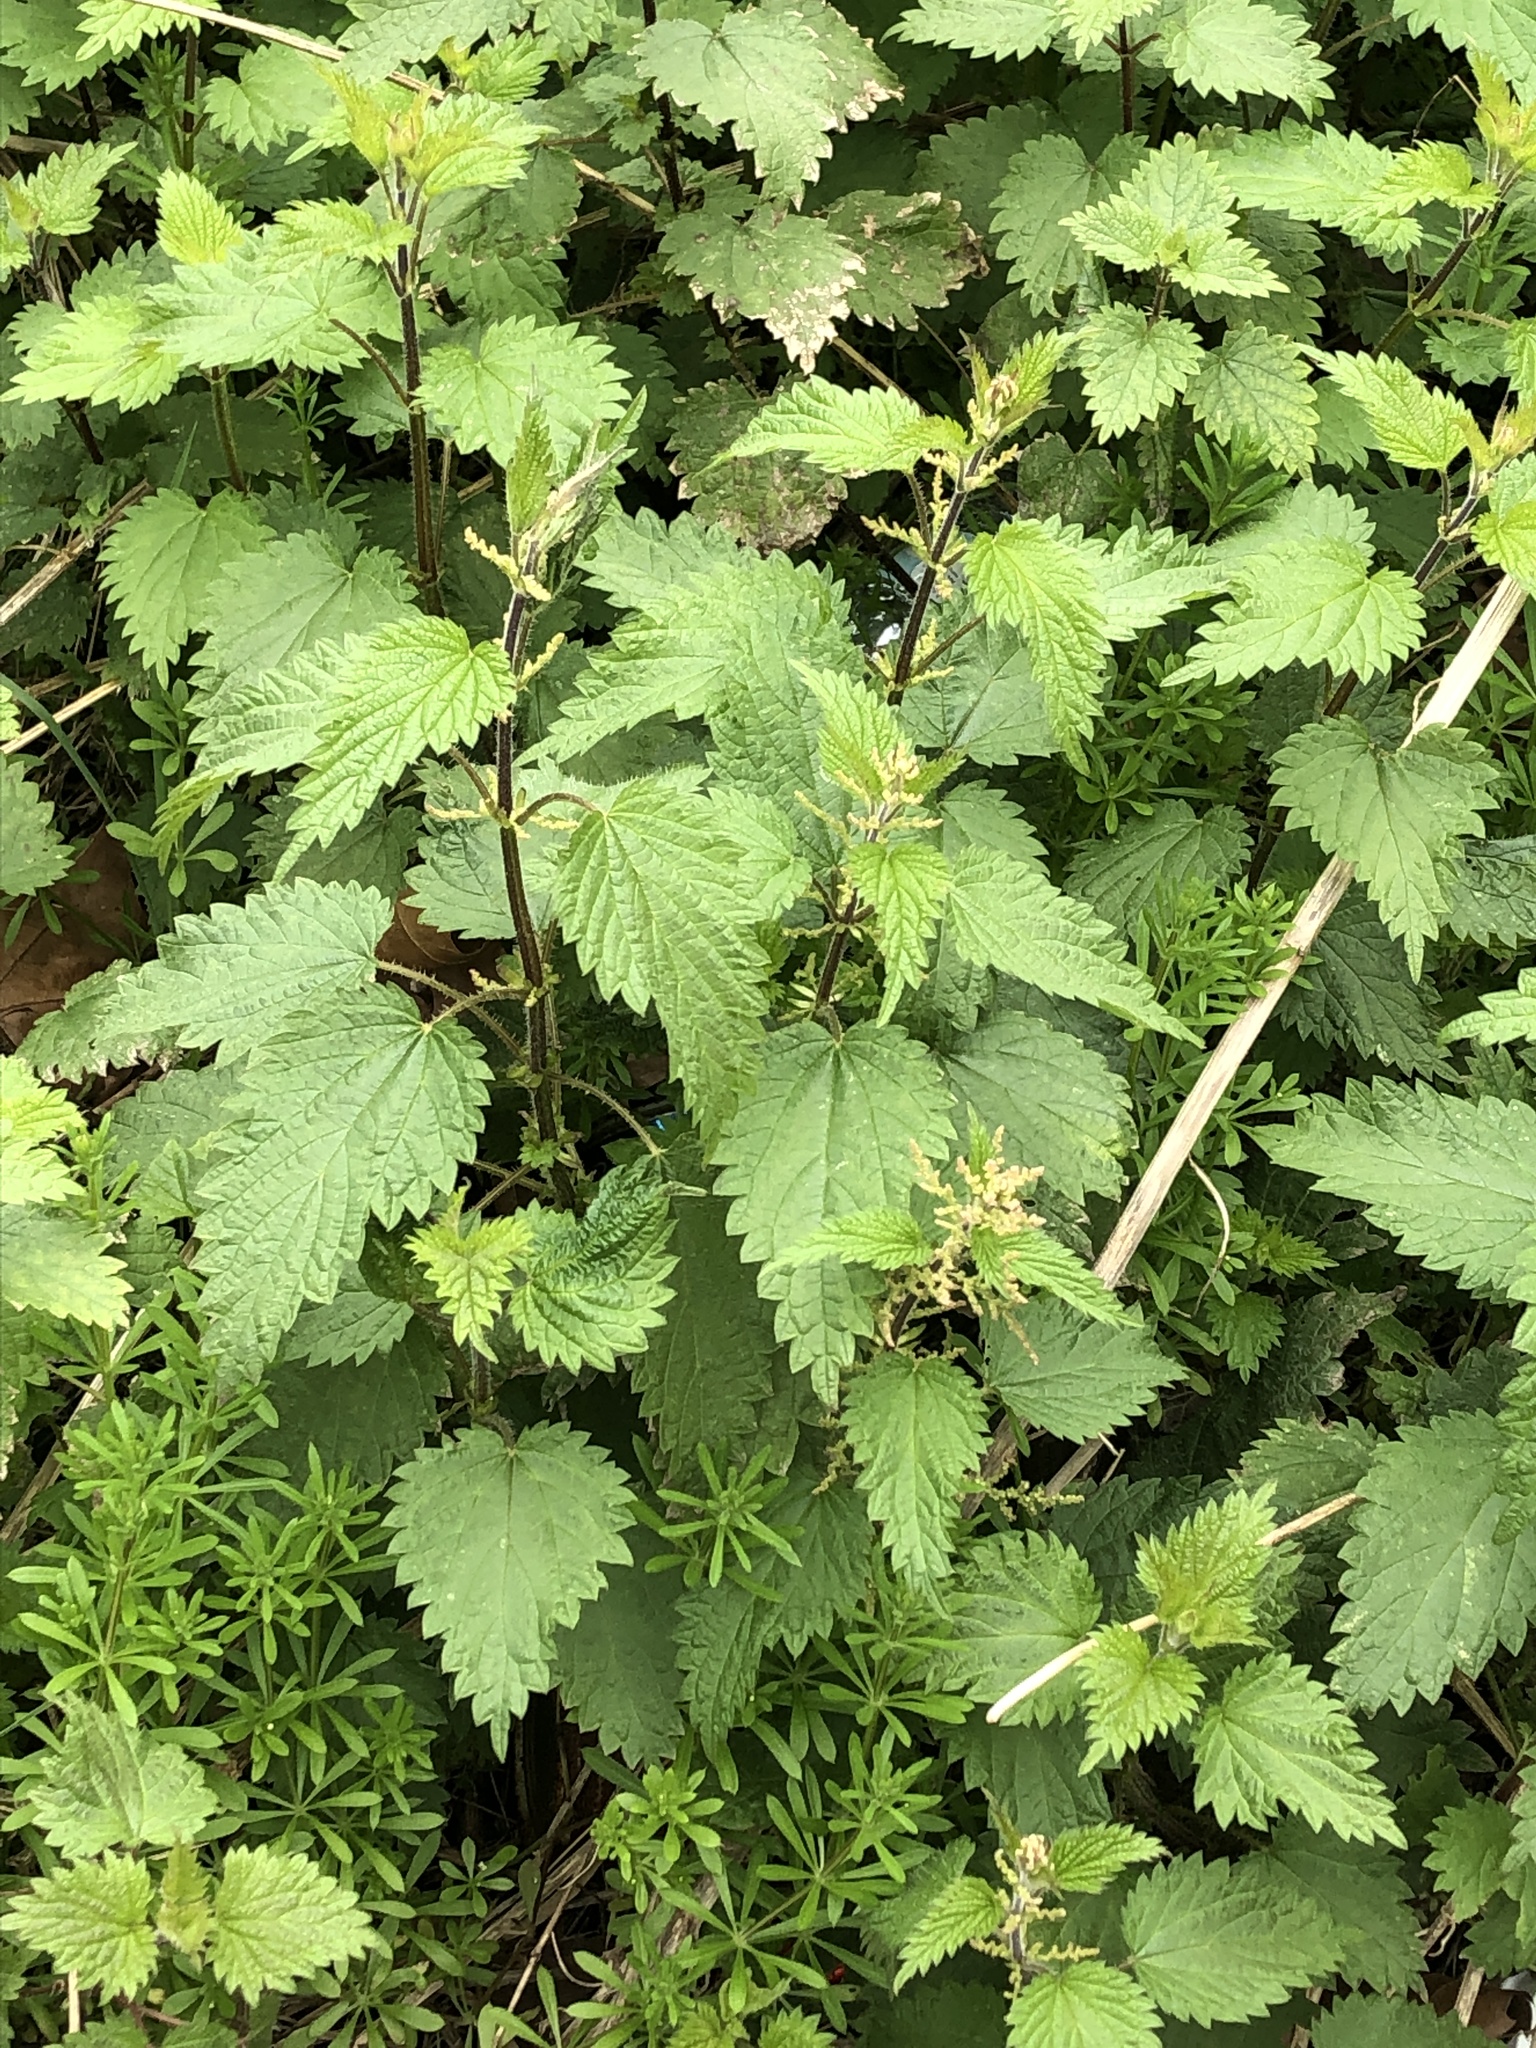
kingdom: Plantae
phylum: Tracheophyta
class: Magnoliopsida
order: Rosales
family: Urticaceae
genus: Urtica
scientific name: Urtica dioica
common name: Common nettle
